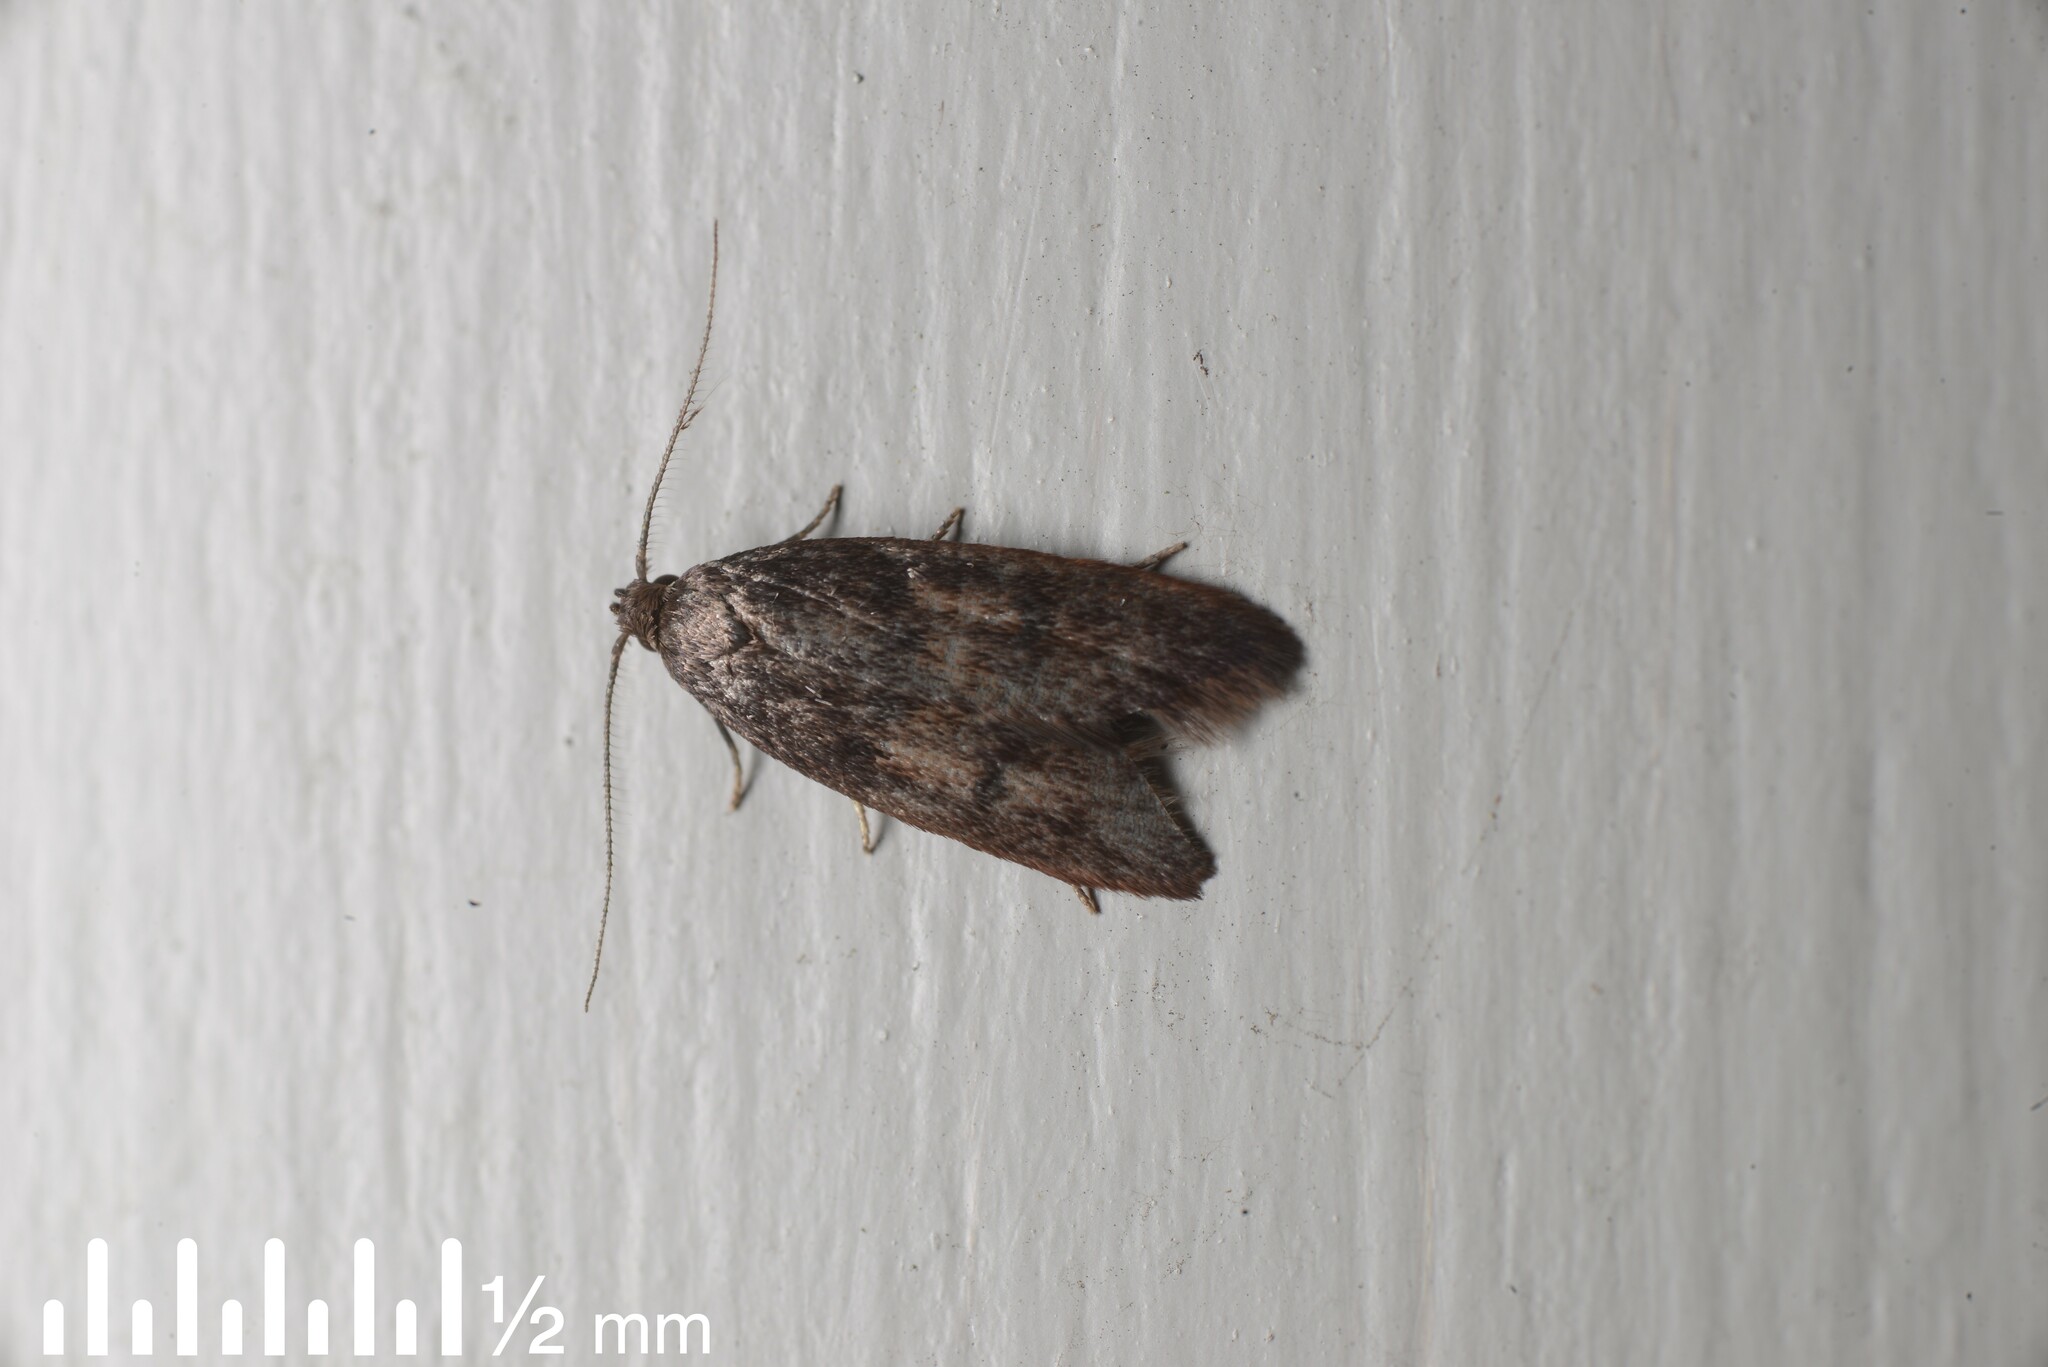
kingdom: Animalia
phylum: Arthropoda
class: Insecta
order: Lepidoptera
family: Oecophoridae
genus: Tachystola
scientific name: Tachystola acroxantha
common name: Ruddy streak
